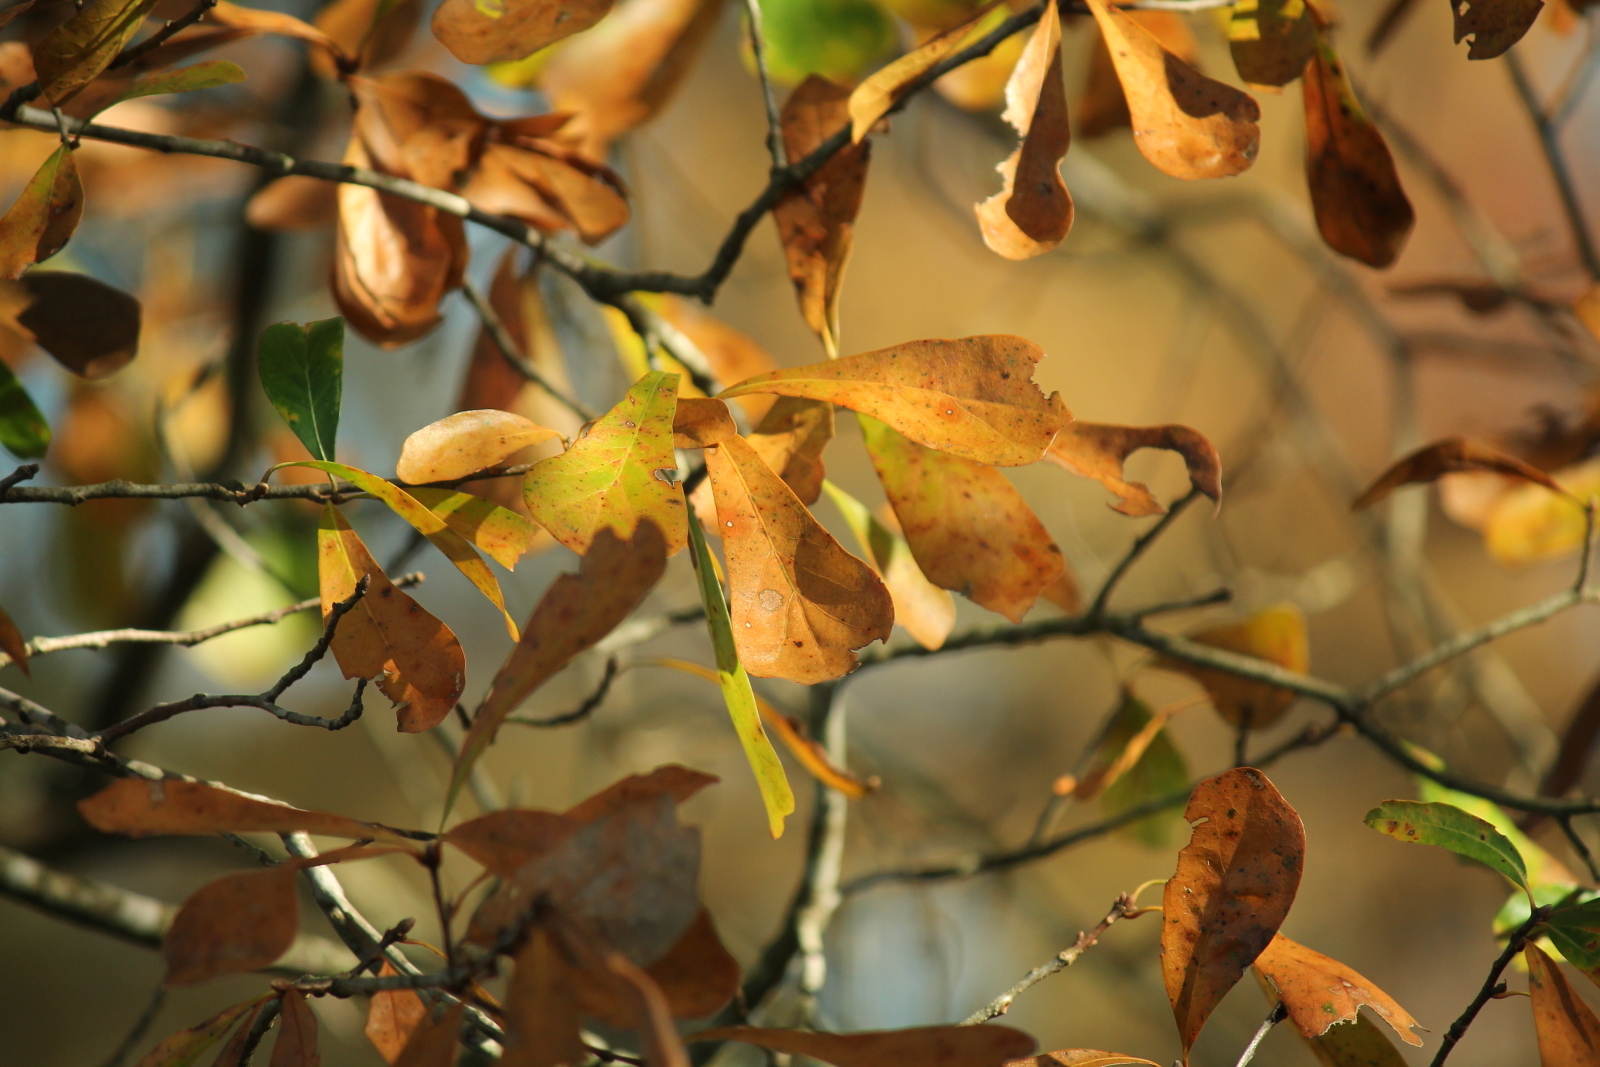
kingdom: Plantae
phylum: Tracheophyta
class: Magnoliopsida
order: Fagales
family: Fagaceae
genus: Quercus
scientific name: Quercus nigra
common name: Water oak
